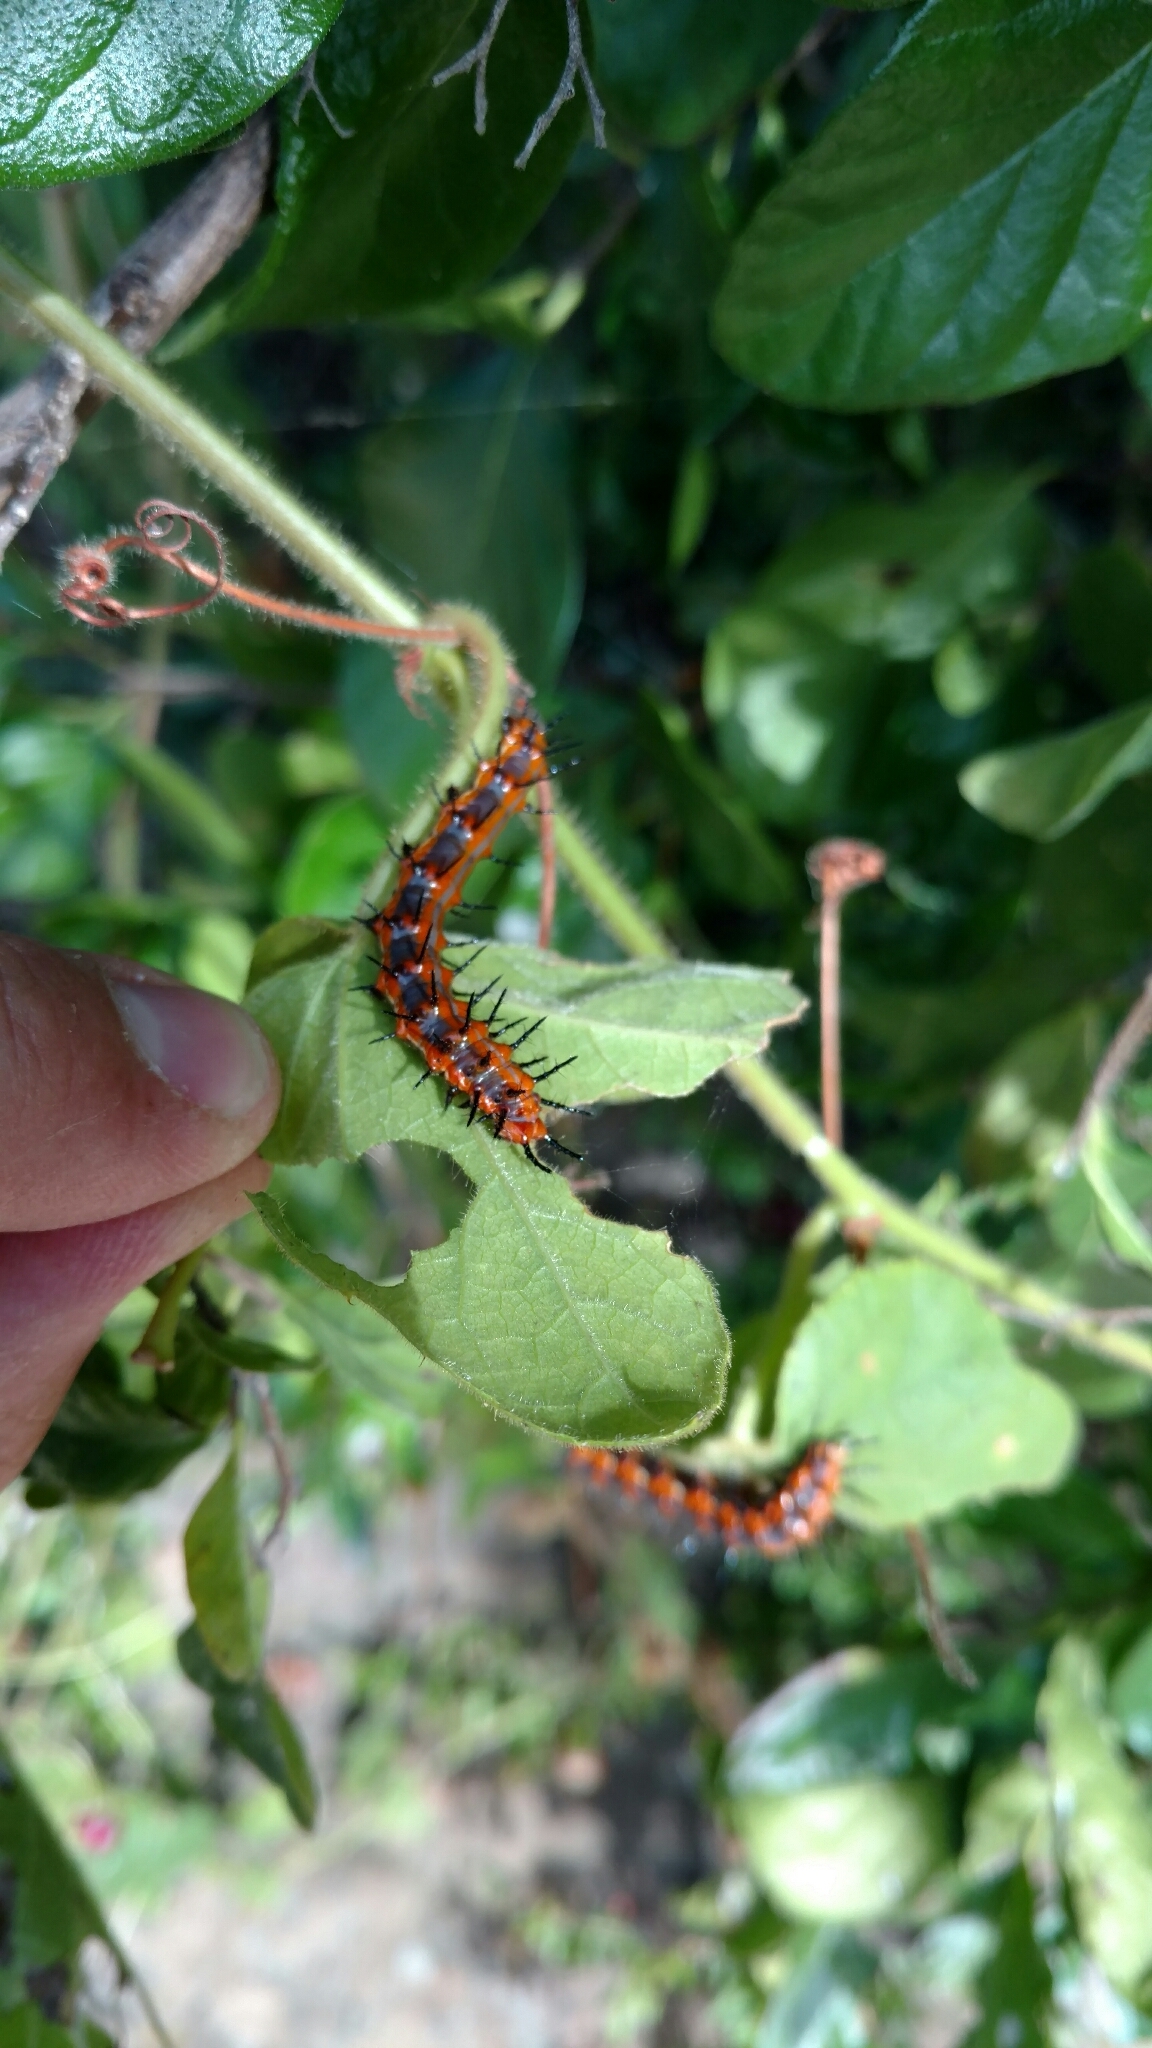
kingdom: Animalia
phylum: Arthropoda
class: Insecta
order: Lepidoptera
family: Nymphalidae
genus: Dione
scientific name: Dione vanillae
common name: Gulf fritillary
